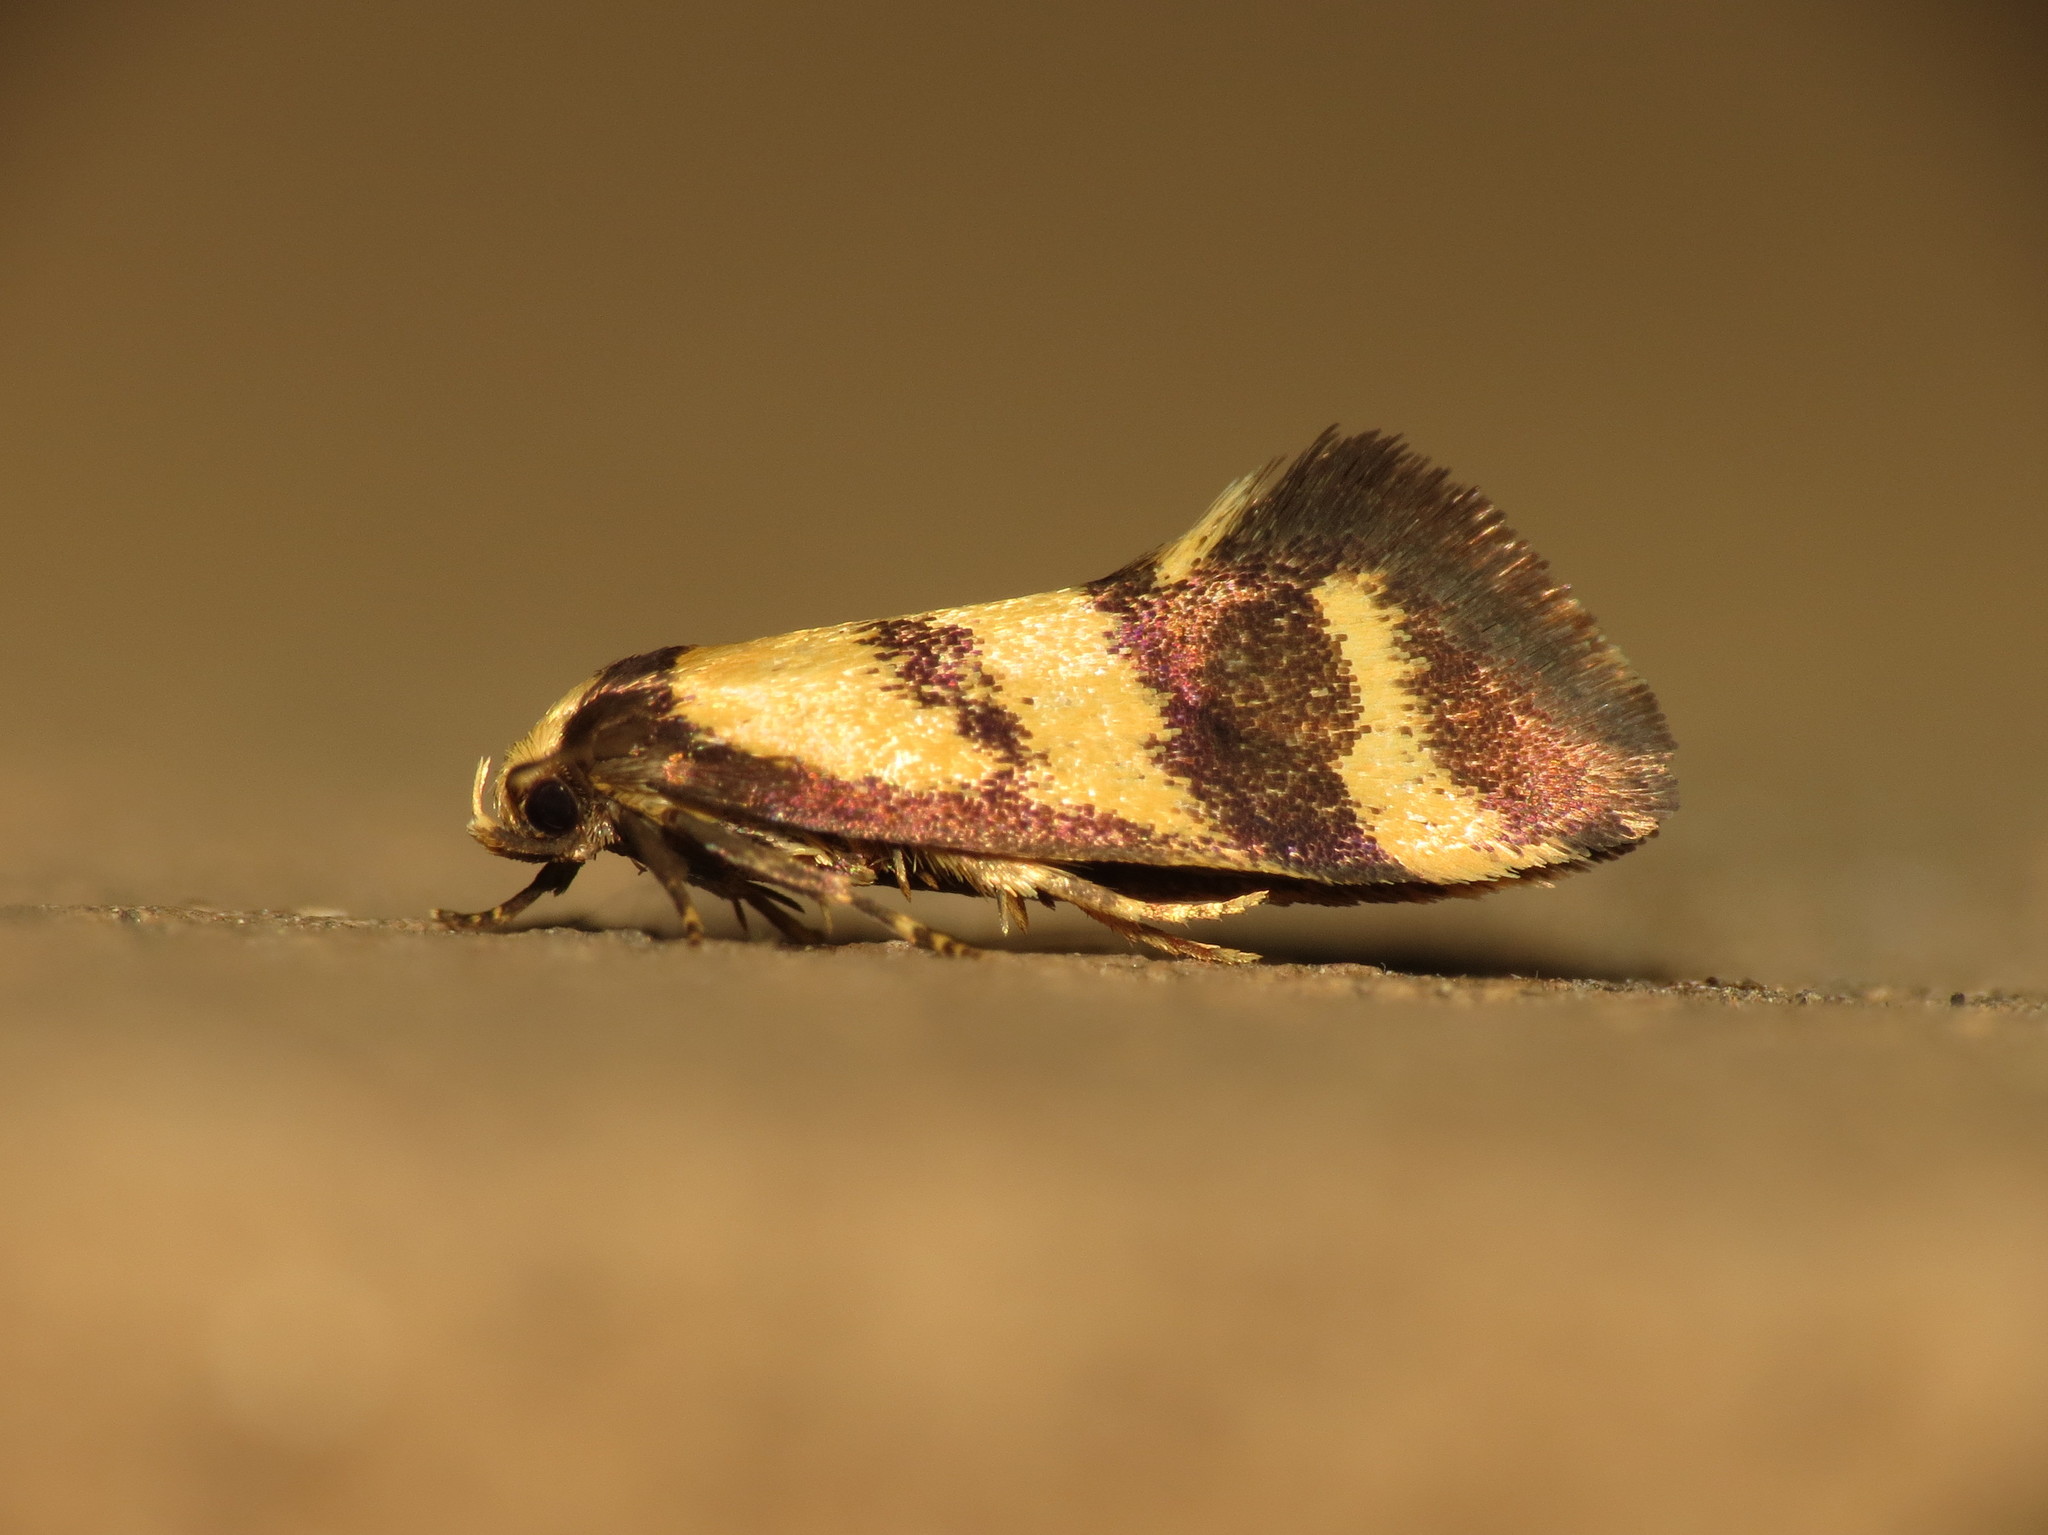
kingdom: Animalia
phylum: Arthropoda
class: Insecta
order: Lepidoptera
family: Oecophoridae
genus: Olbonoma
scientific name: Olbonoma triptycha
